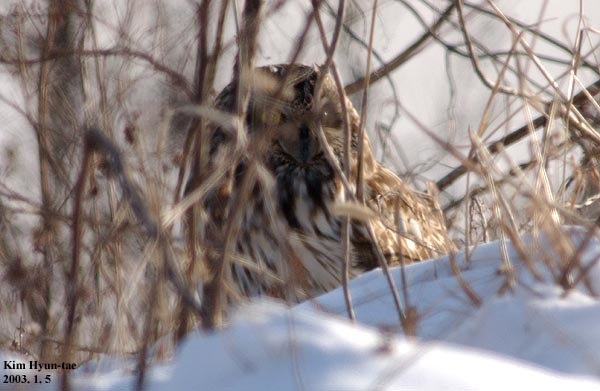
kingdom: Animalia
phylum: Chordata
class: Aves
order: Strigiformes
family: Strigidae
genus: Asio
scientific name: Asio flammeus
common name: Short-eared owl
